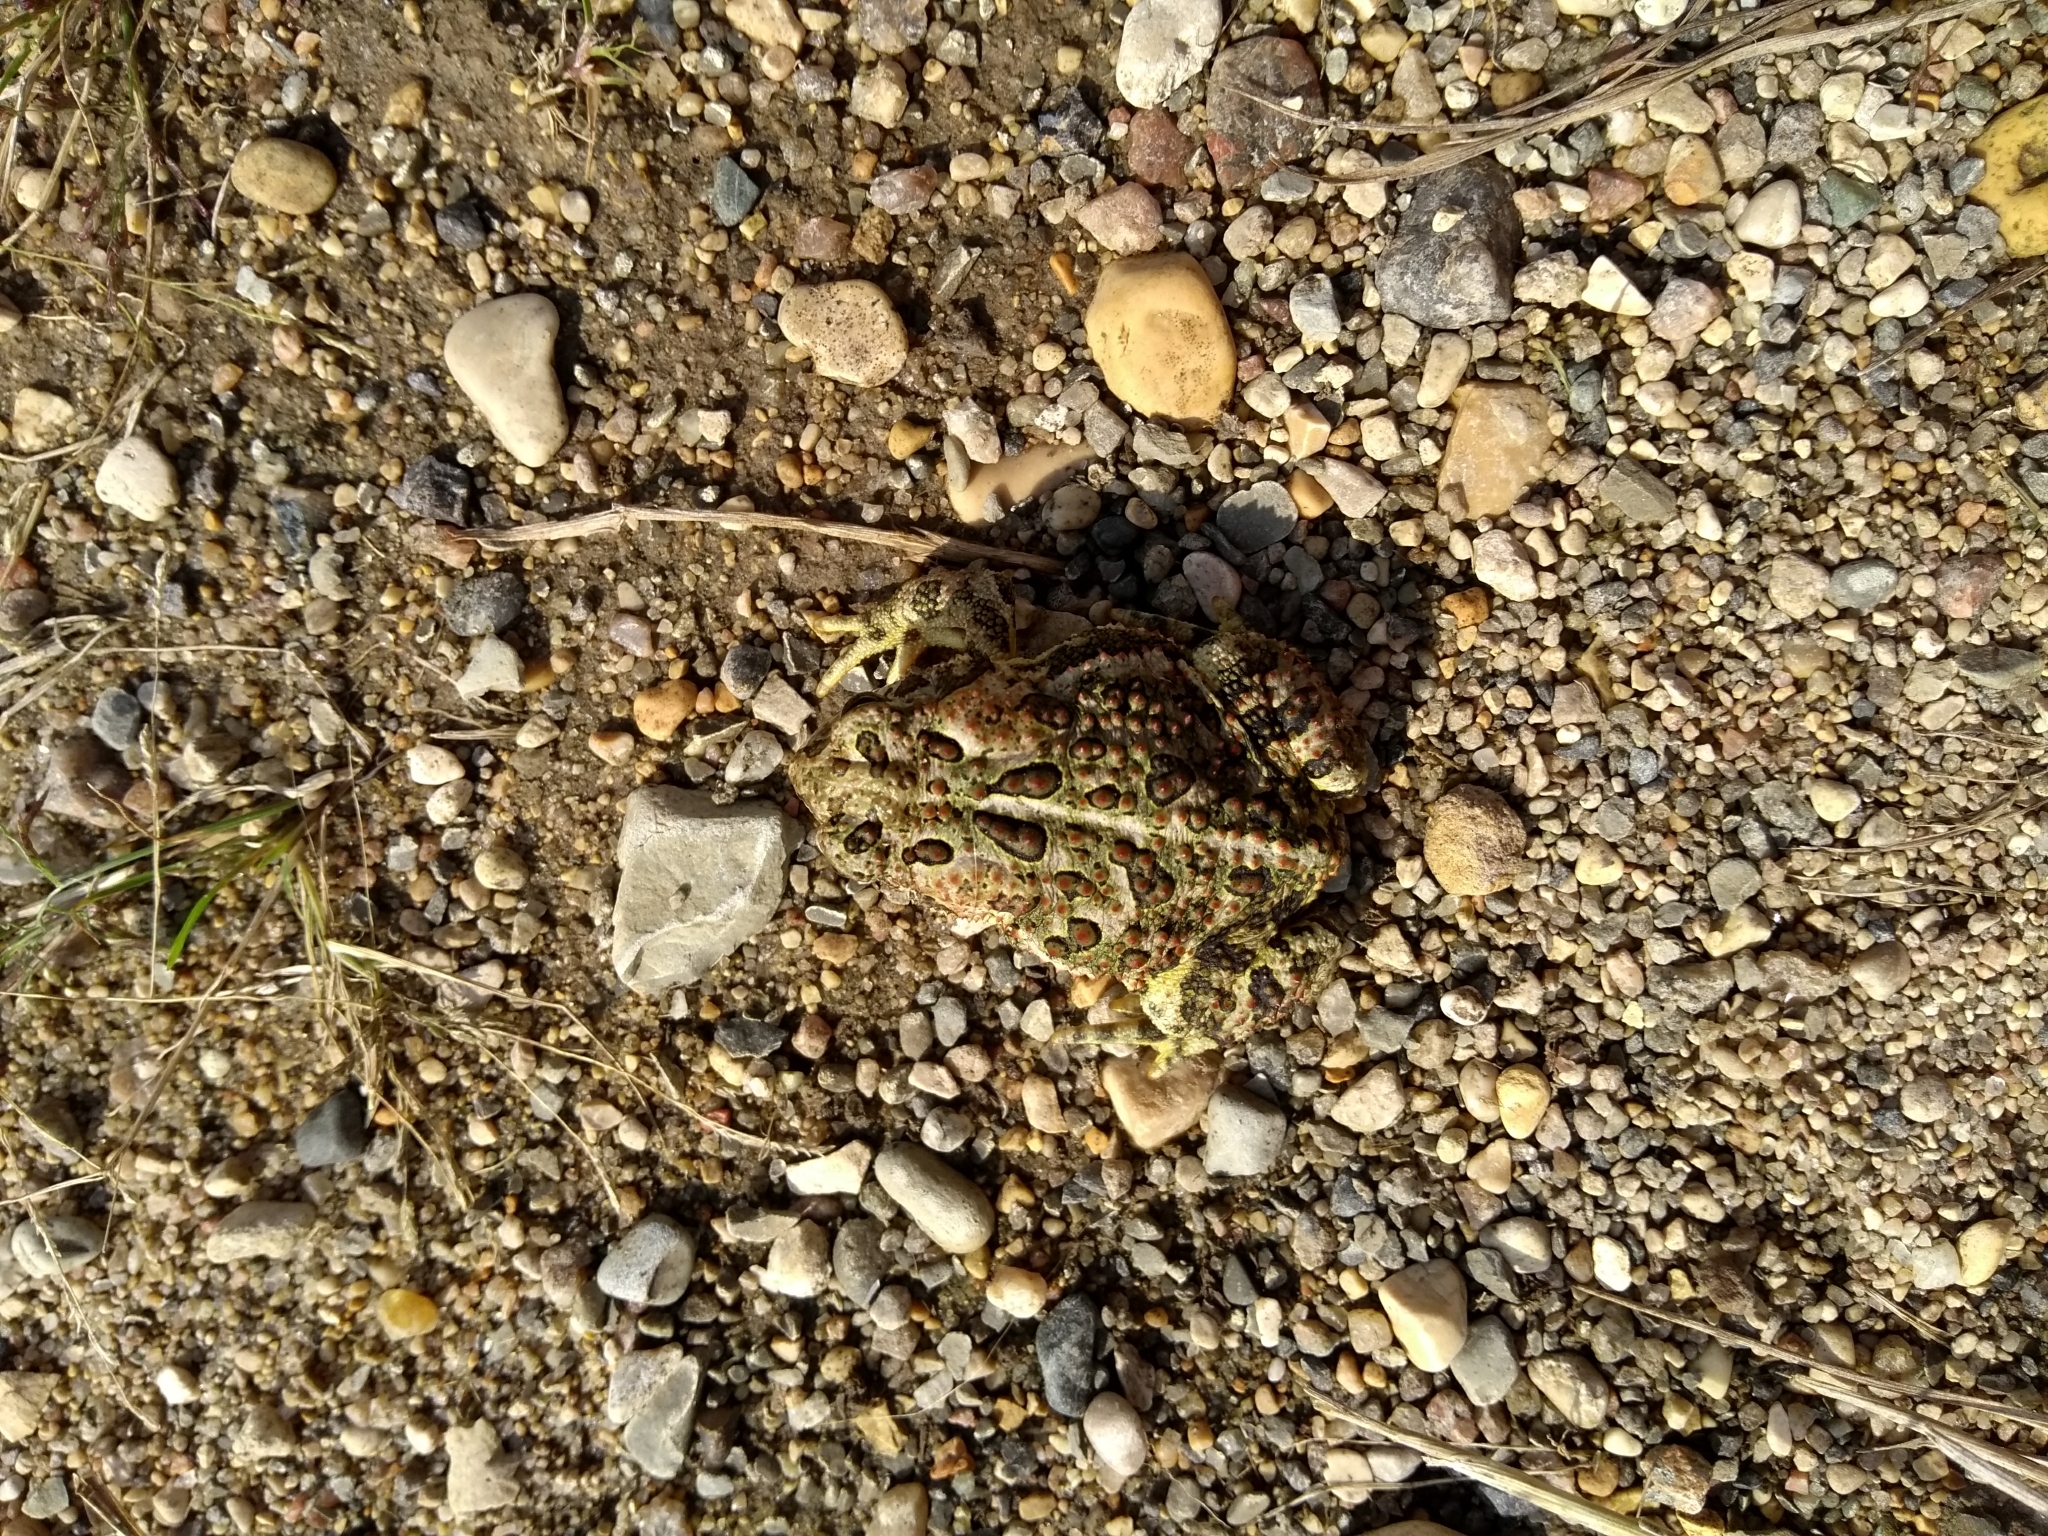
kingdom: Animalia
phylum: Chordata
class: Amphibia
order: Anura
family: Bufonidae
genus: Anaxyrus
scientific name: Anaxyrus hemiophrys
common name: Canadian toad
